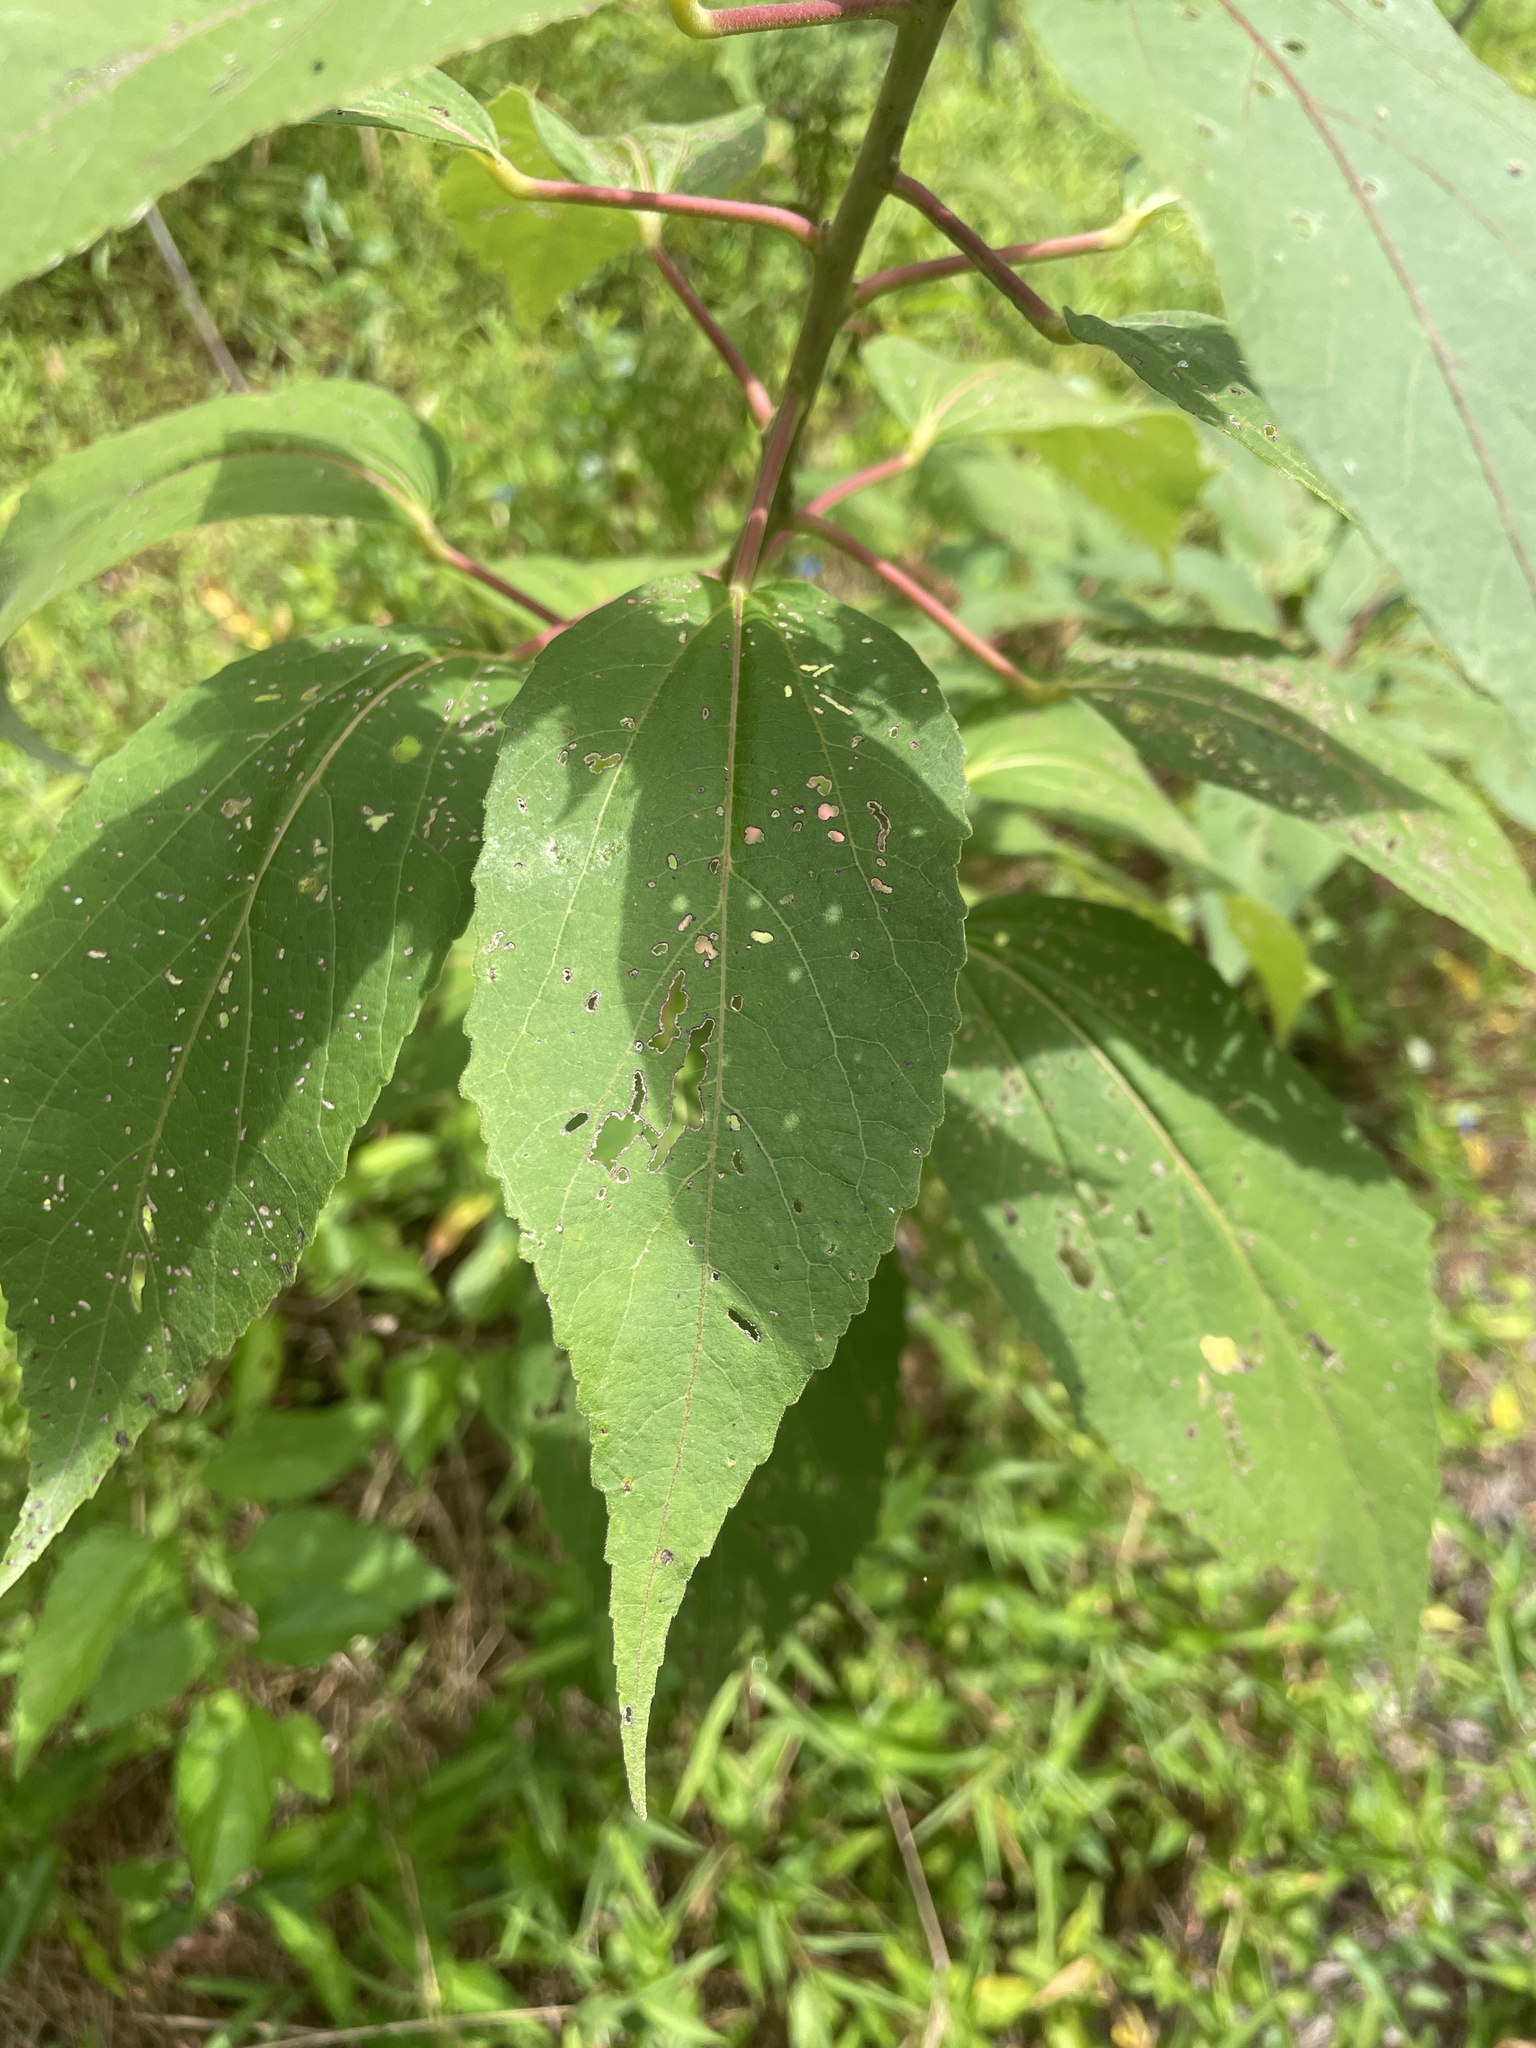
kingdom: Plantae
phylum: Tracheophyta
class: Magnoliopsida
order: Malvales
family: Malvaceae
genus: Hibiscus
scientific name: Hibiscus moscheutos
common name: Common rose-mallow
